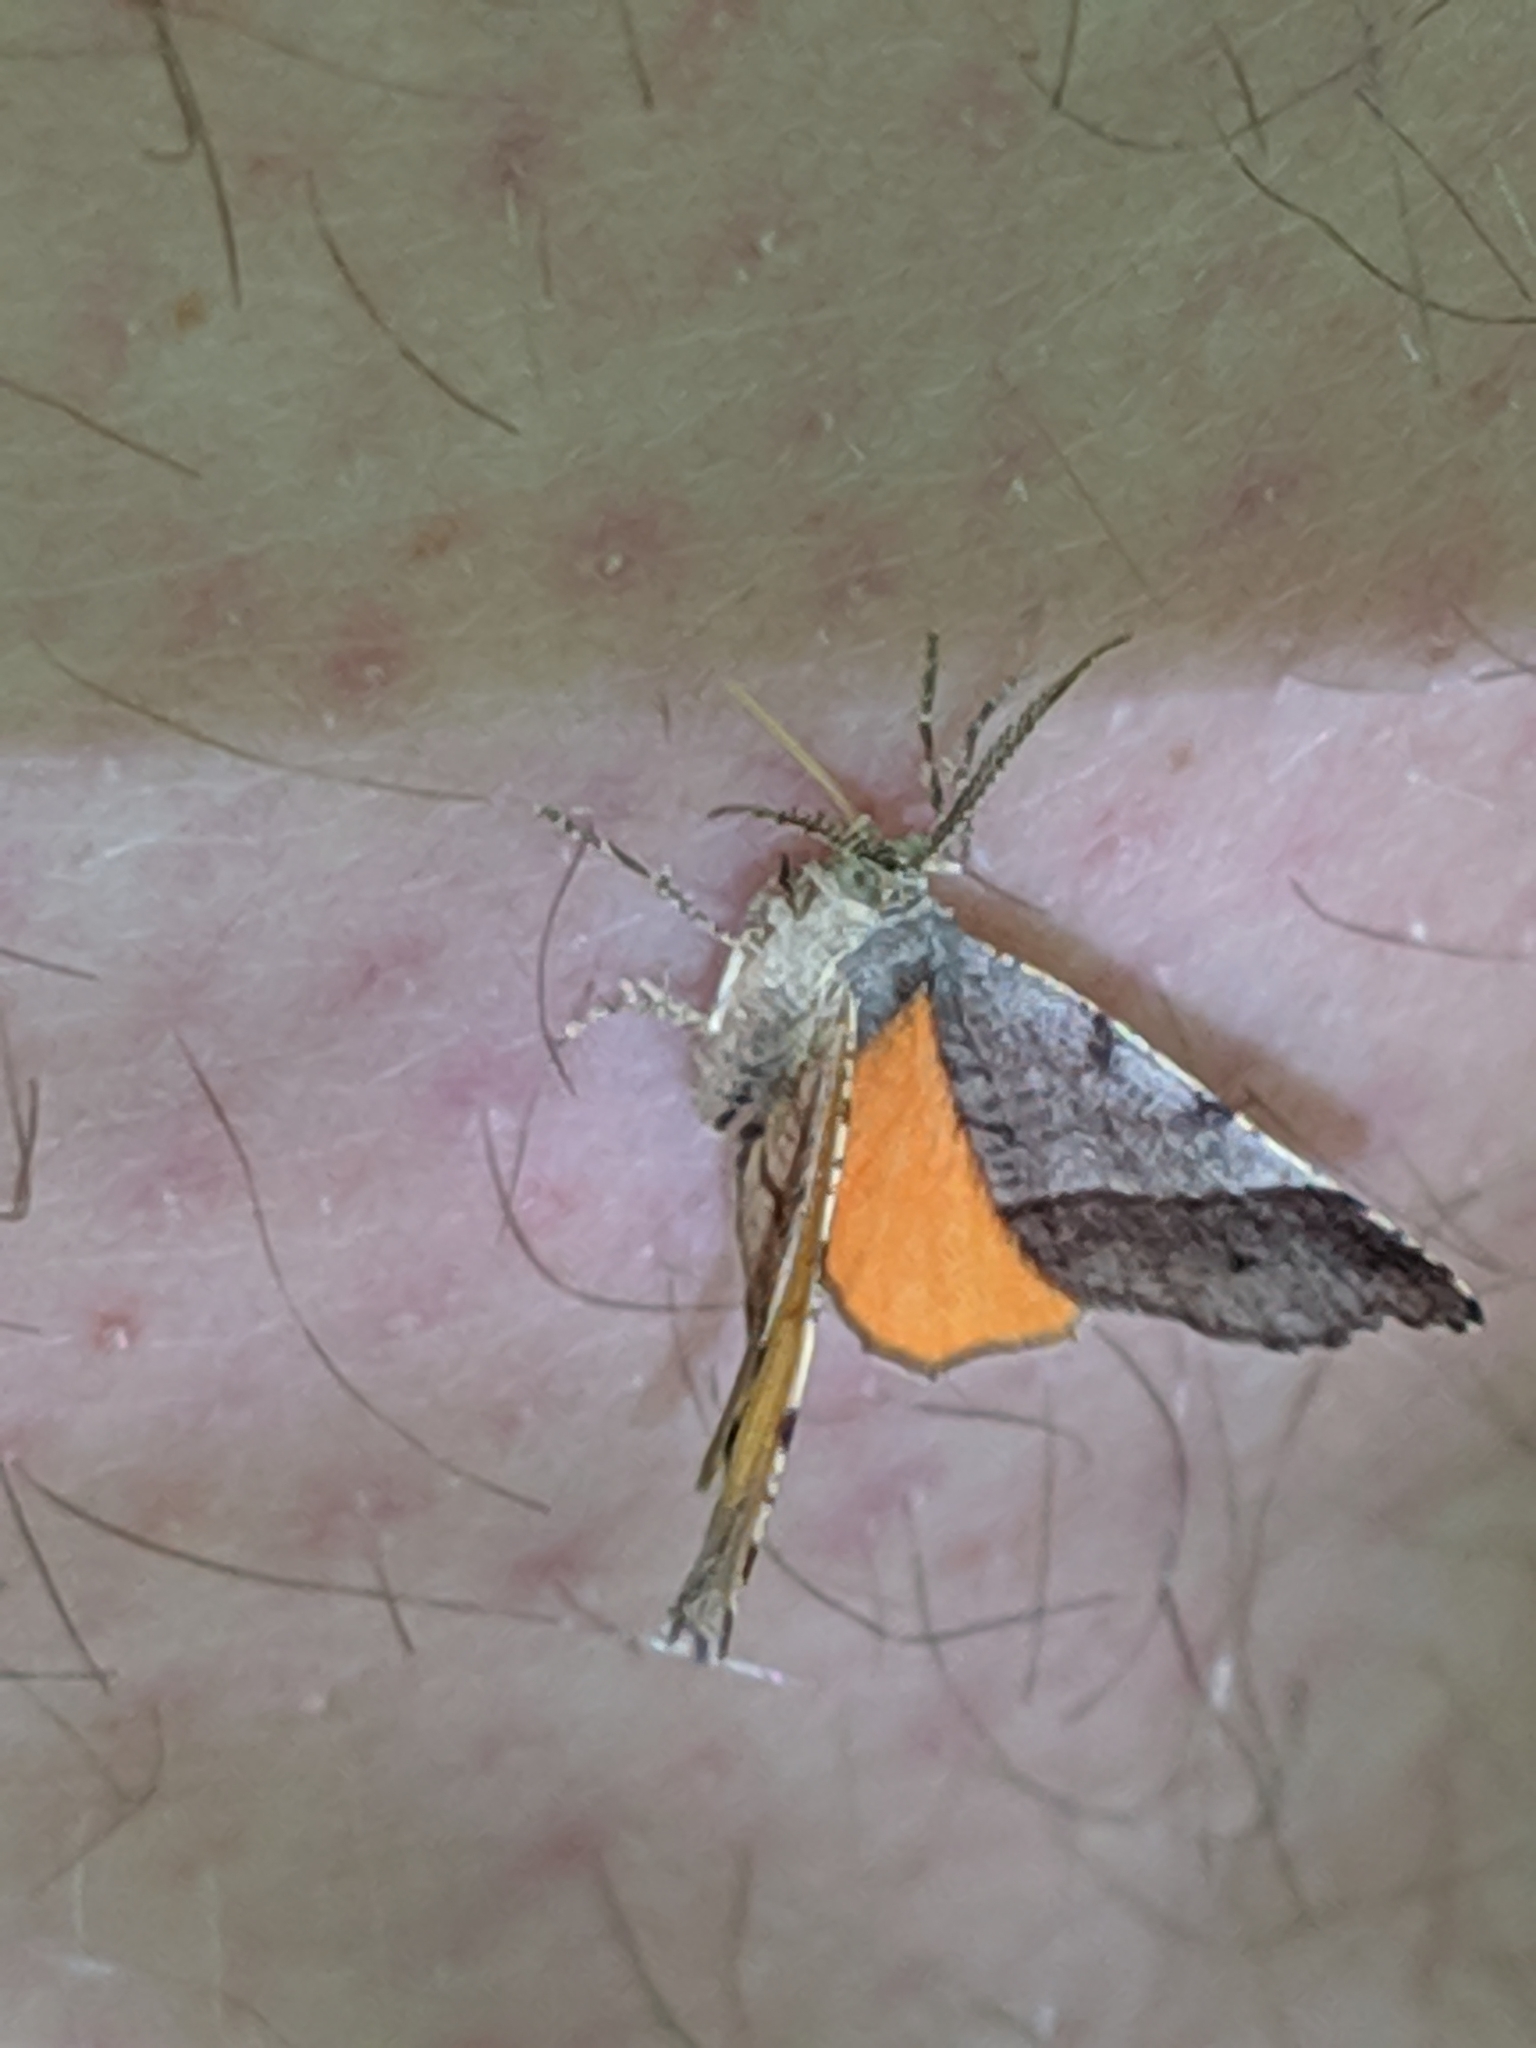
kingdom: Animalia
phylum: Arthropoda
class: Insecta
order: Lepidoptera
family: Geometridae
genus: Mellilla
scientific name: Mellilla xanthometata
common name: Orange wing moth
